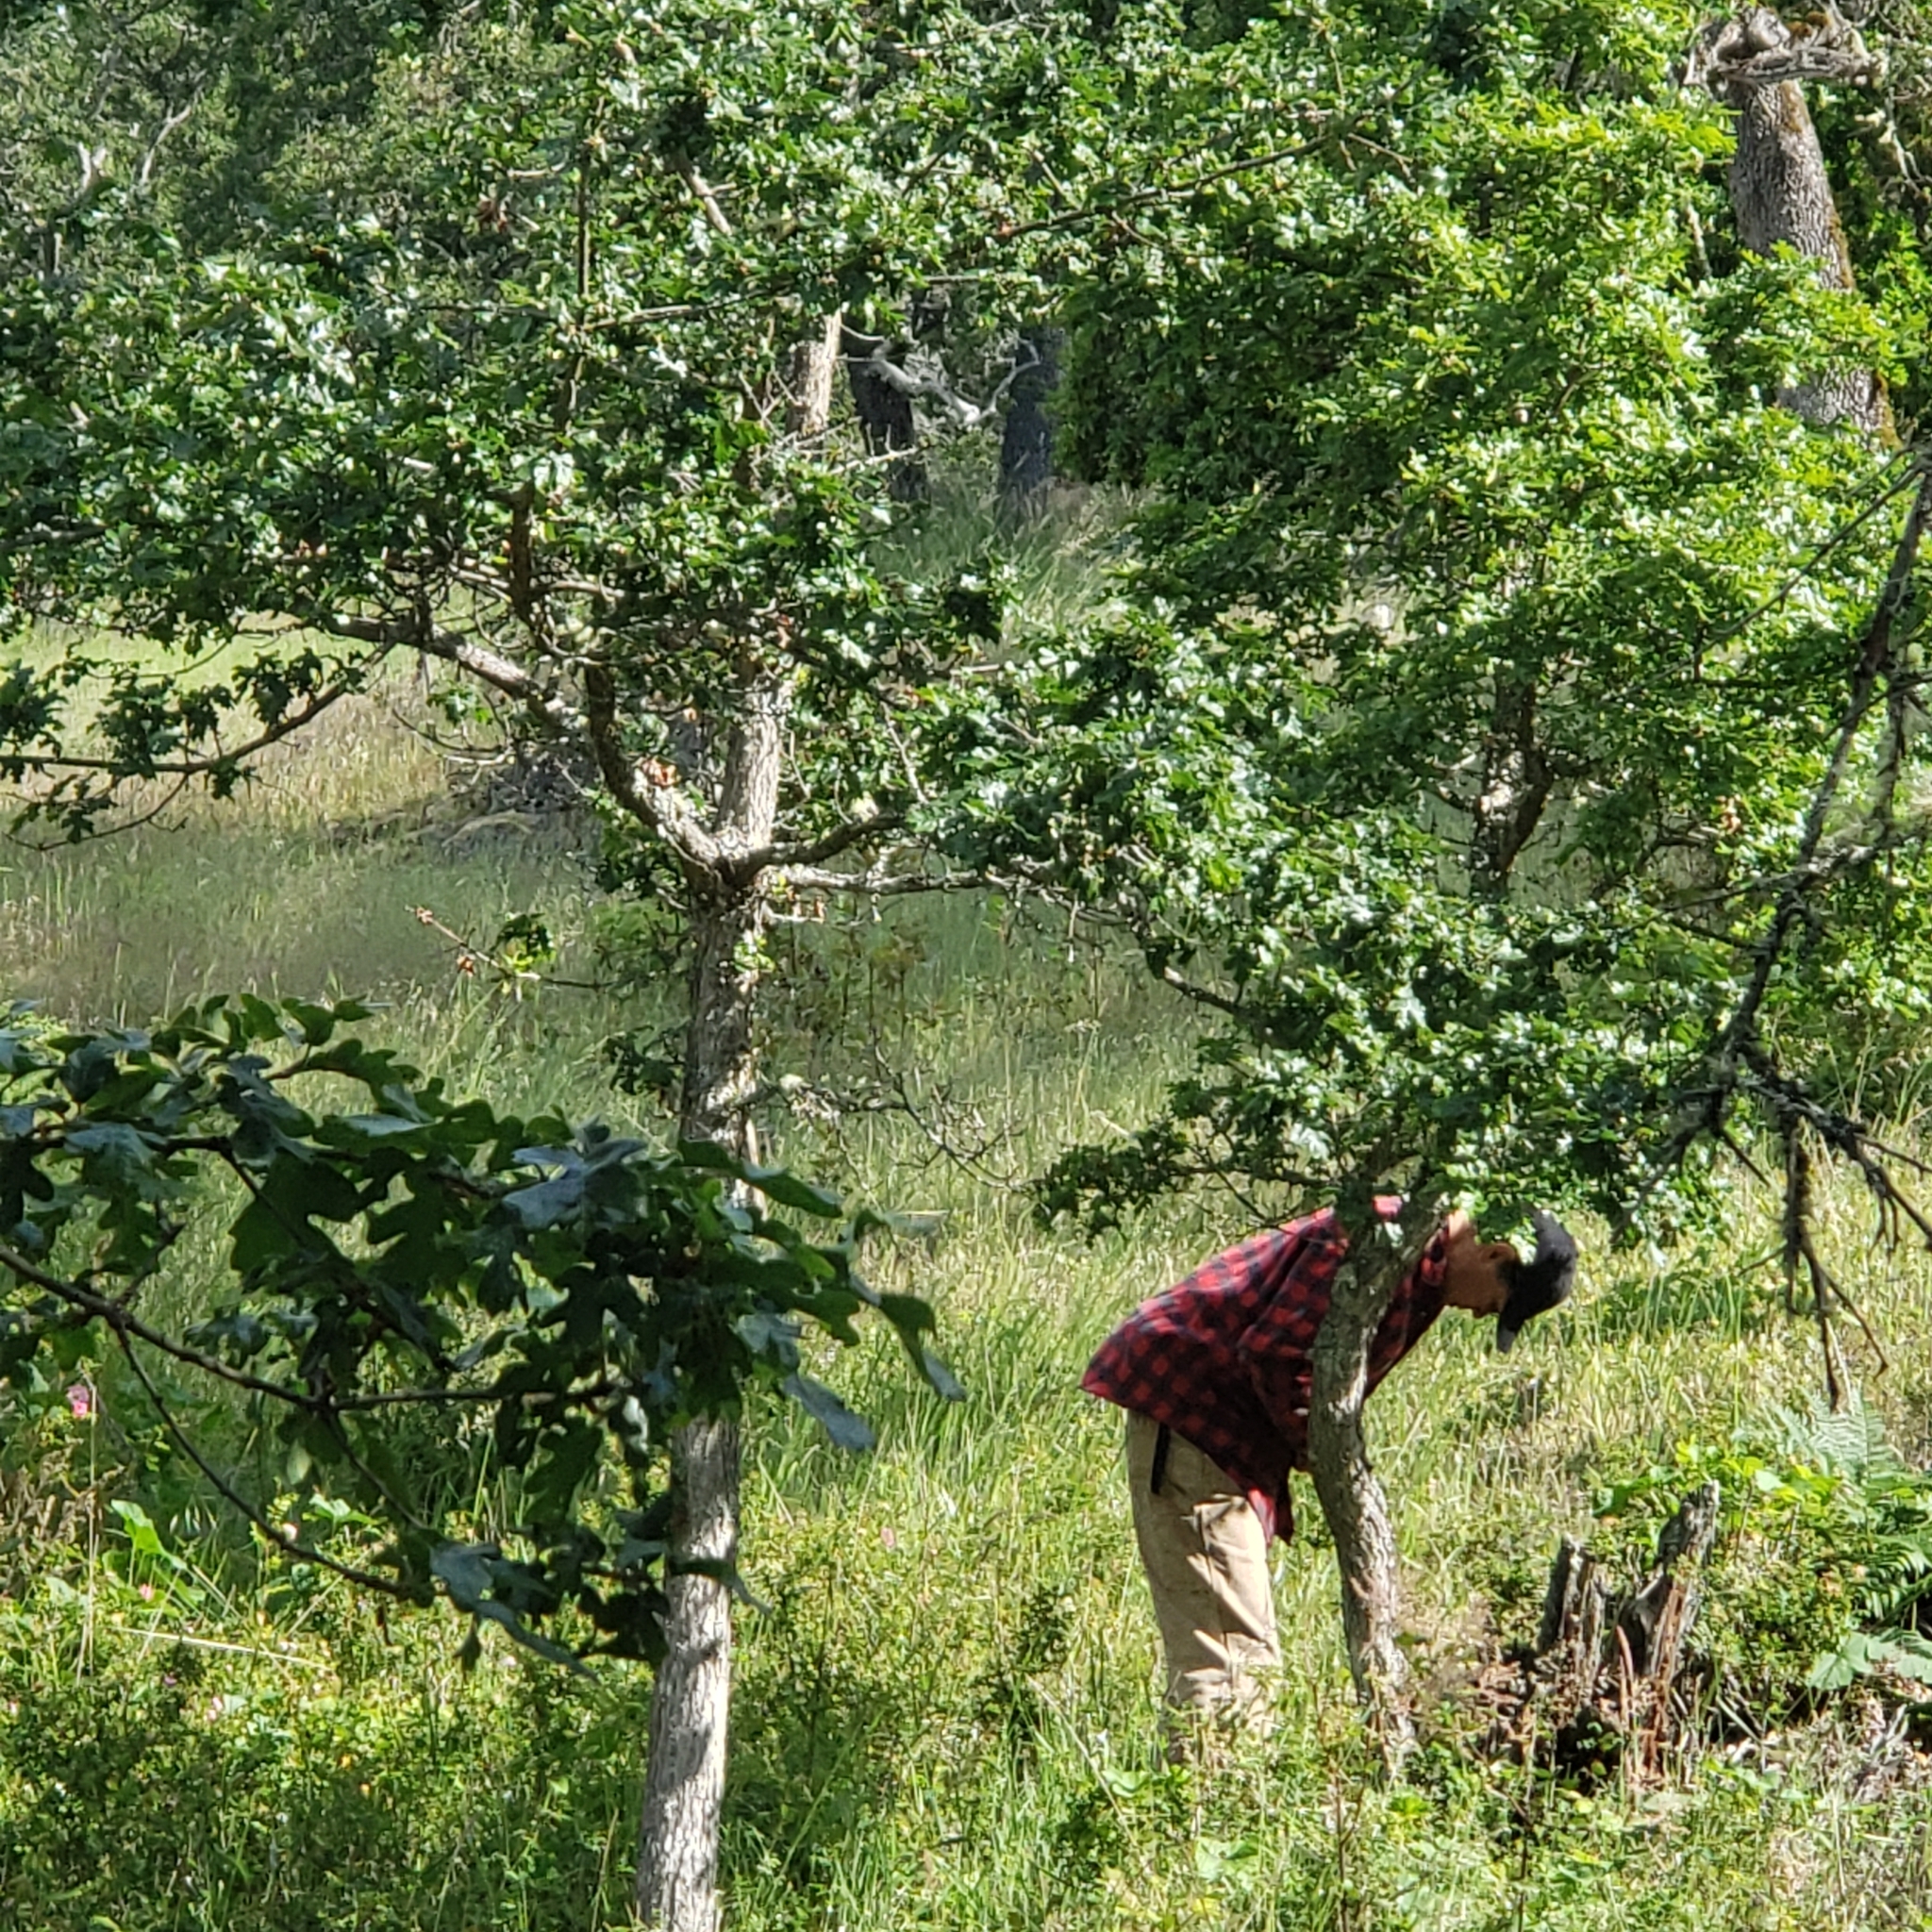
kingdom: Plantae
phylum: Tracheophyta
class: Magnoliopsida
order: Fagales
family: Fagaceae
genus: Quercus
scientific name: Quercus garryana
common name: Garry oak
